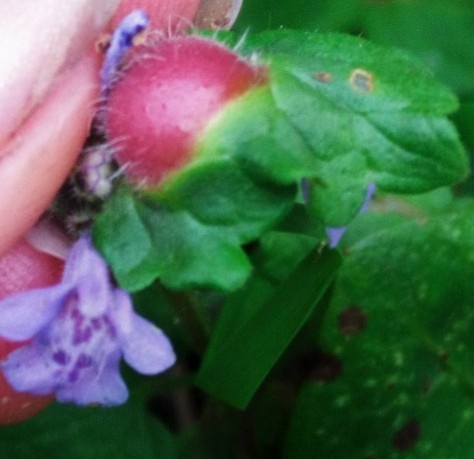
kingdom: Animalia
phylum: Arthropoda
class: Insecta
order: Hymenoptera
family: Cynipidae
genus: Liposthenes
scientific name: Liposthenes glechomae
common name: Gall wasp
